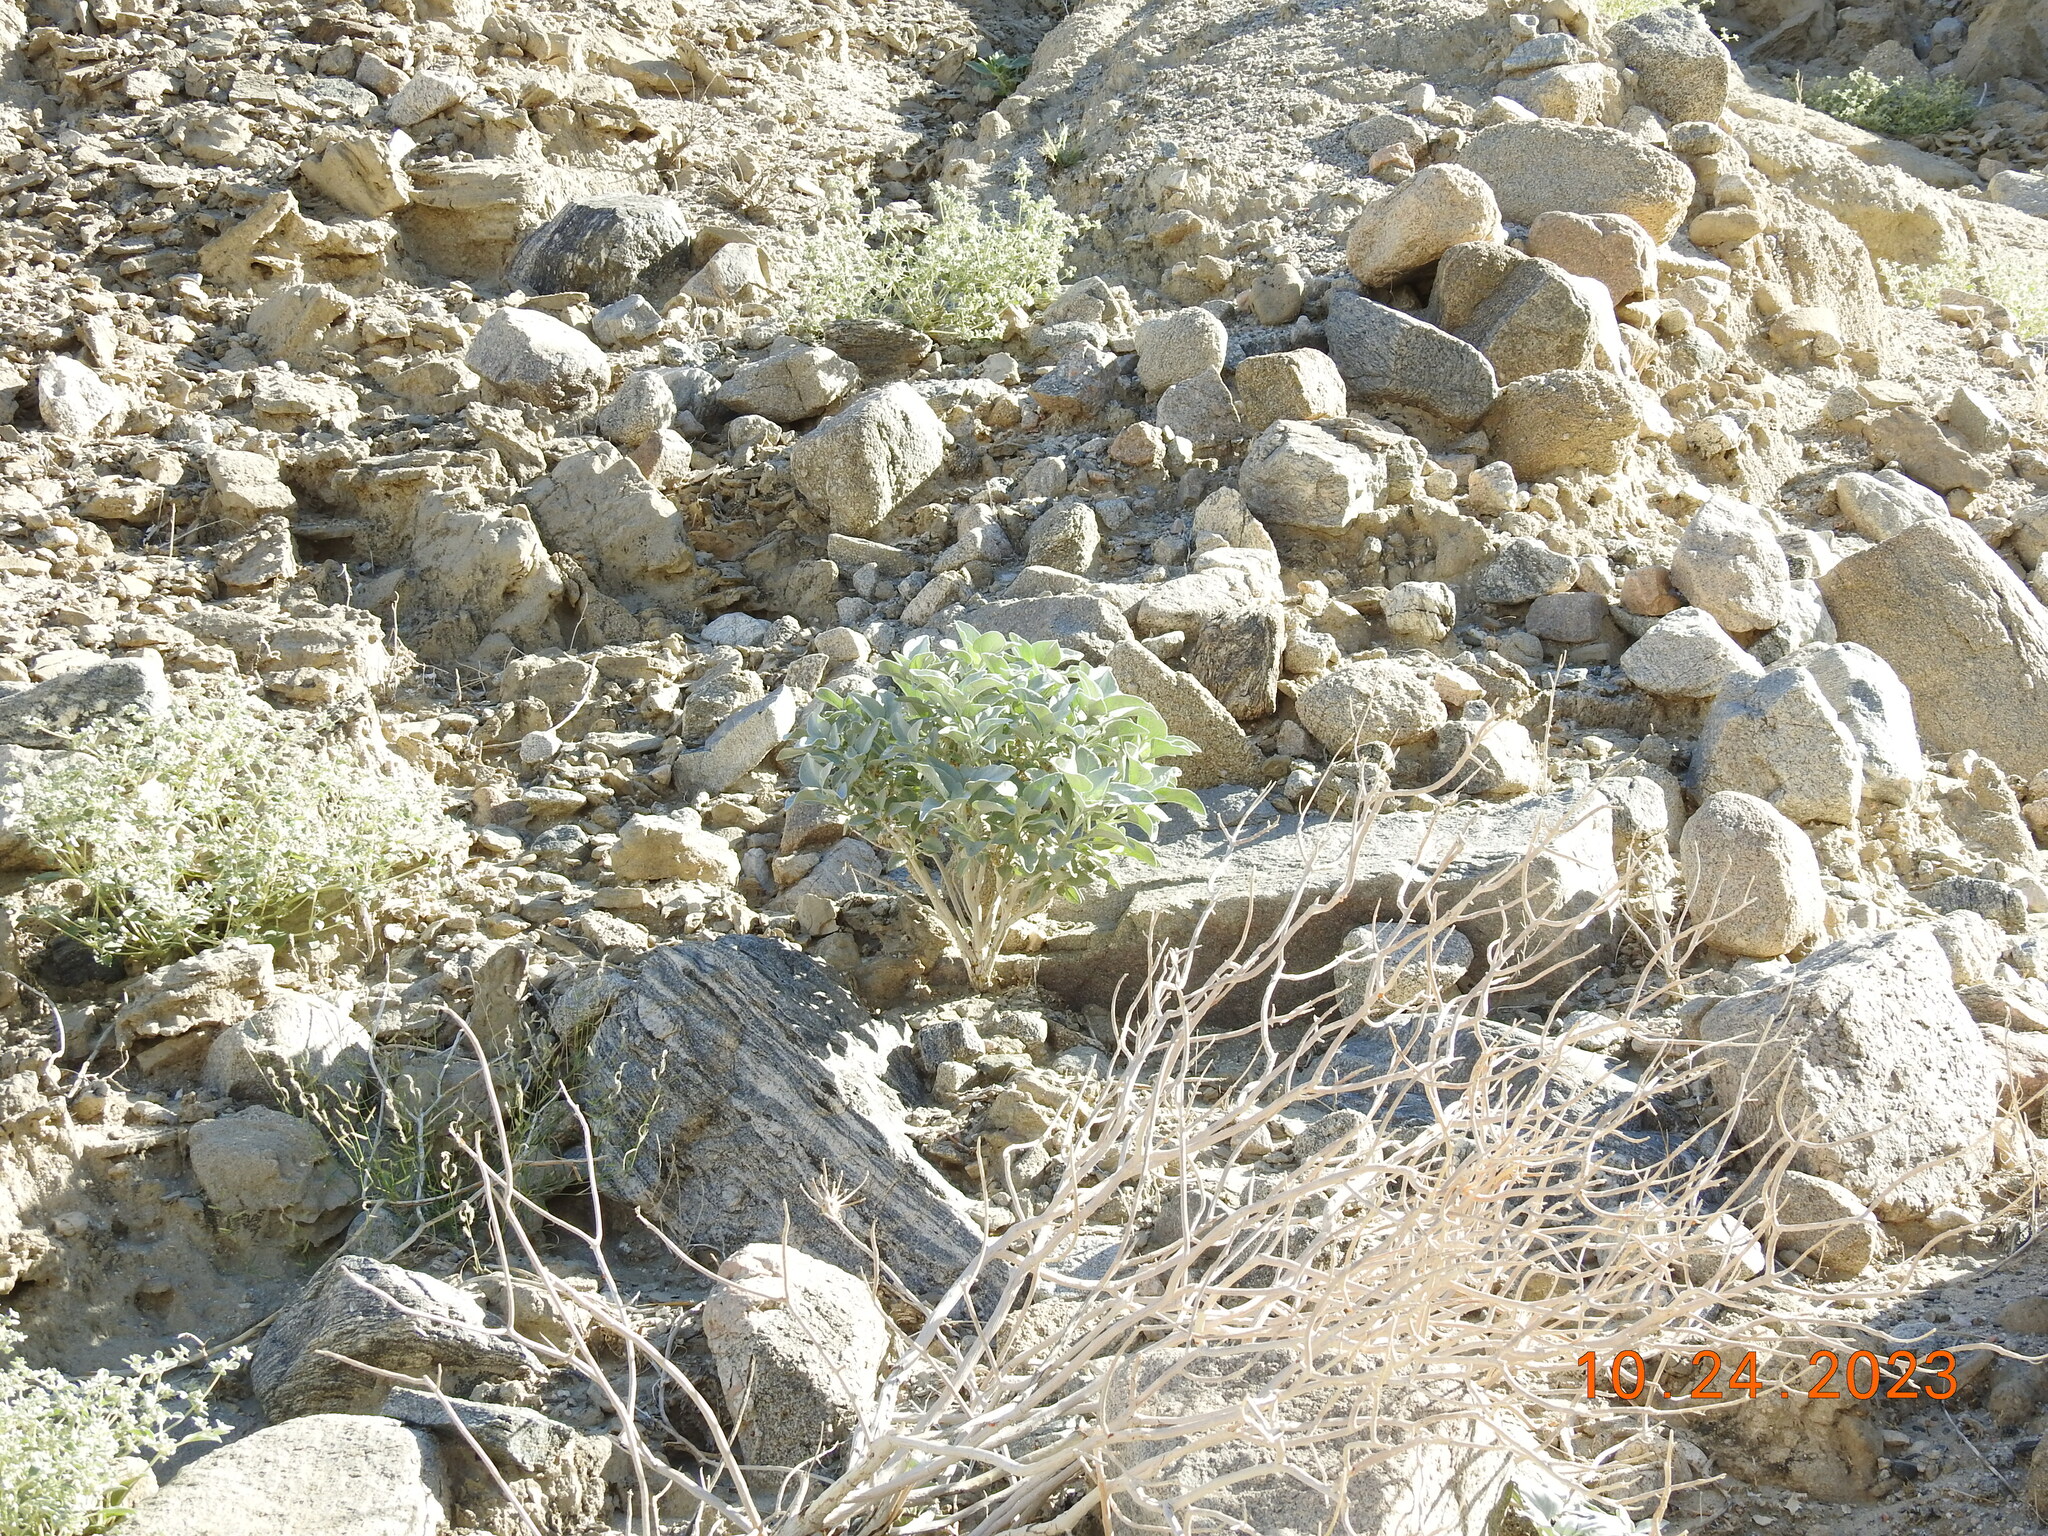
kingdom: Plantae
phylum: Tracheophyta
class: Magnoliopsida
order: Asterales
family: Asteraceae
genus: Encelia
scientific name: Encelia farinosa
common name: Brittlebush
